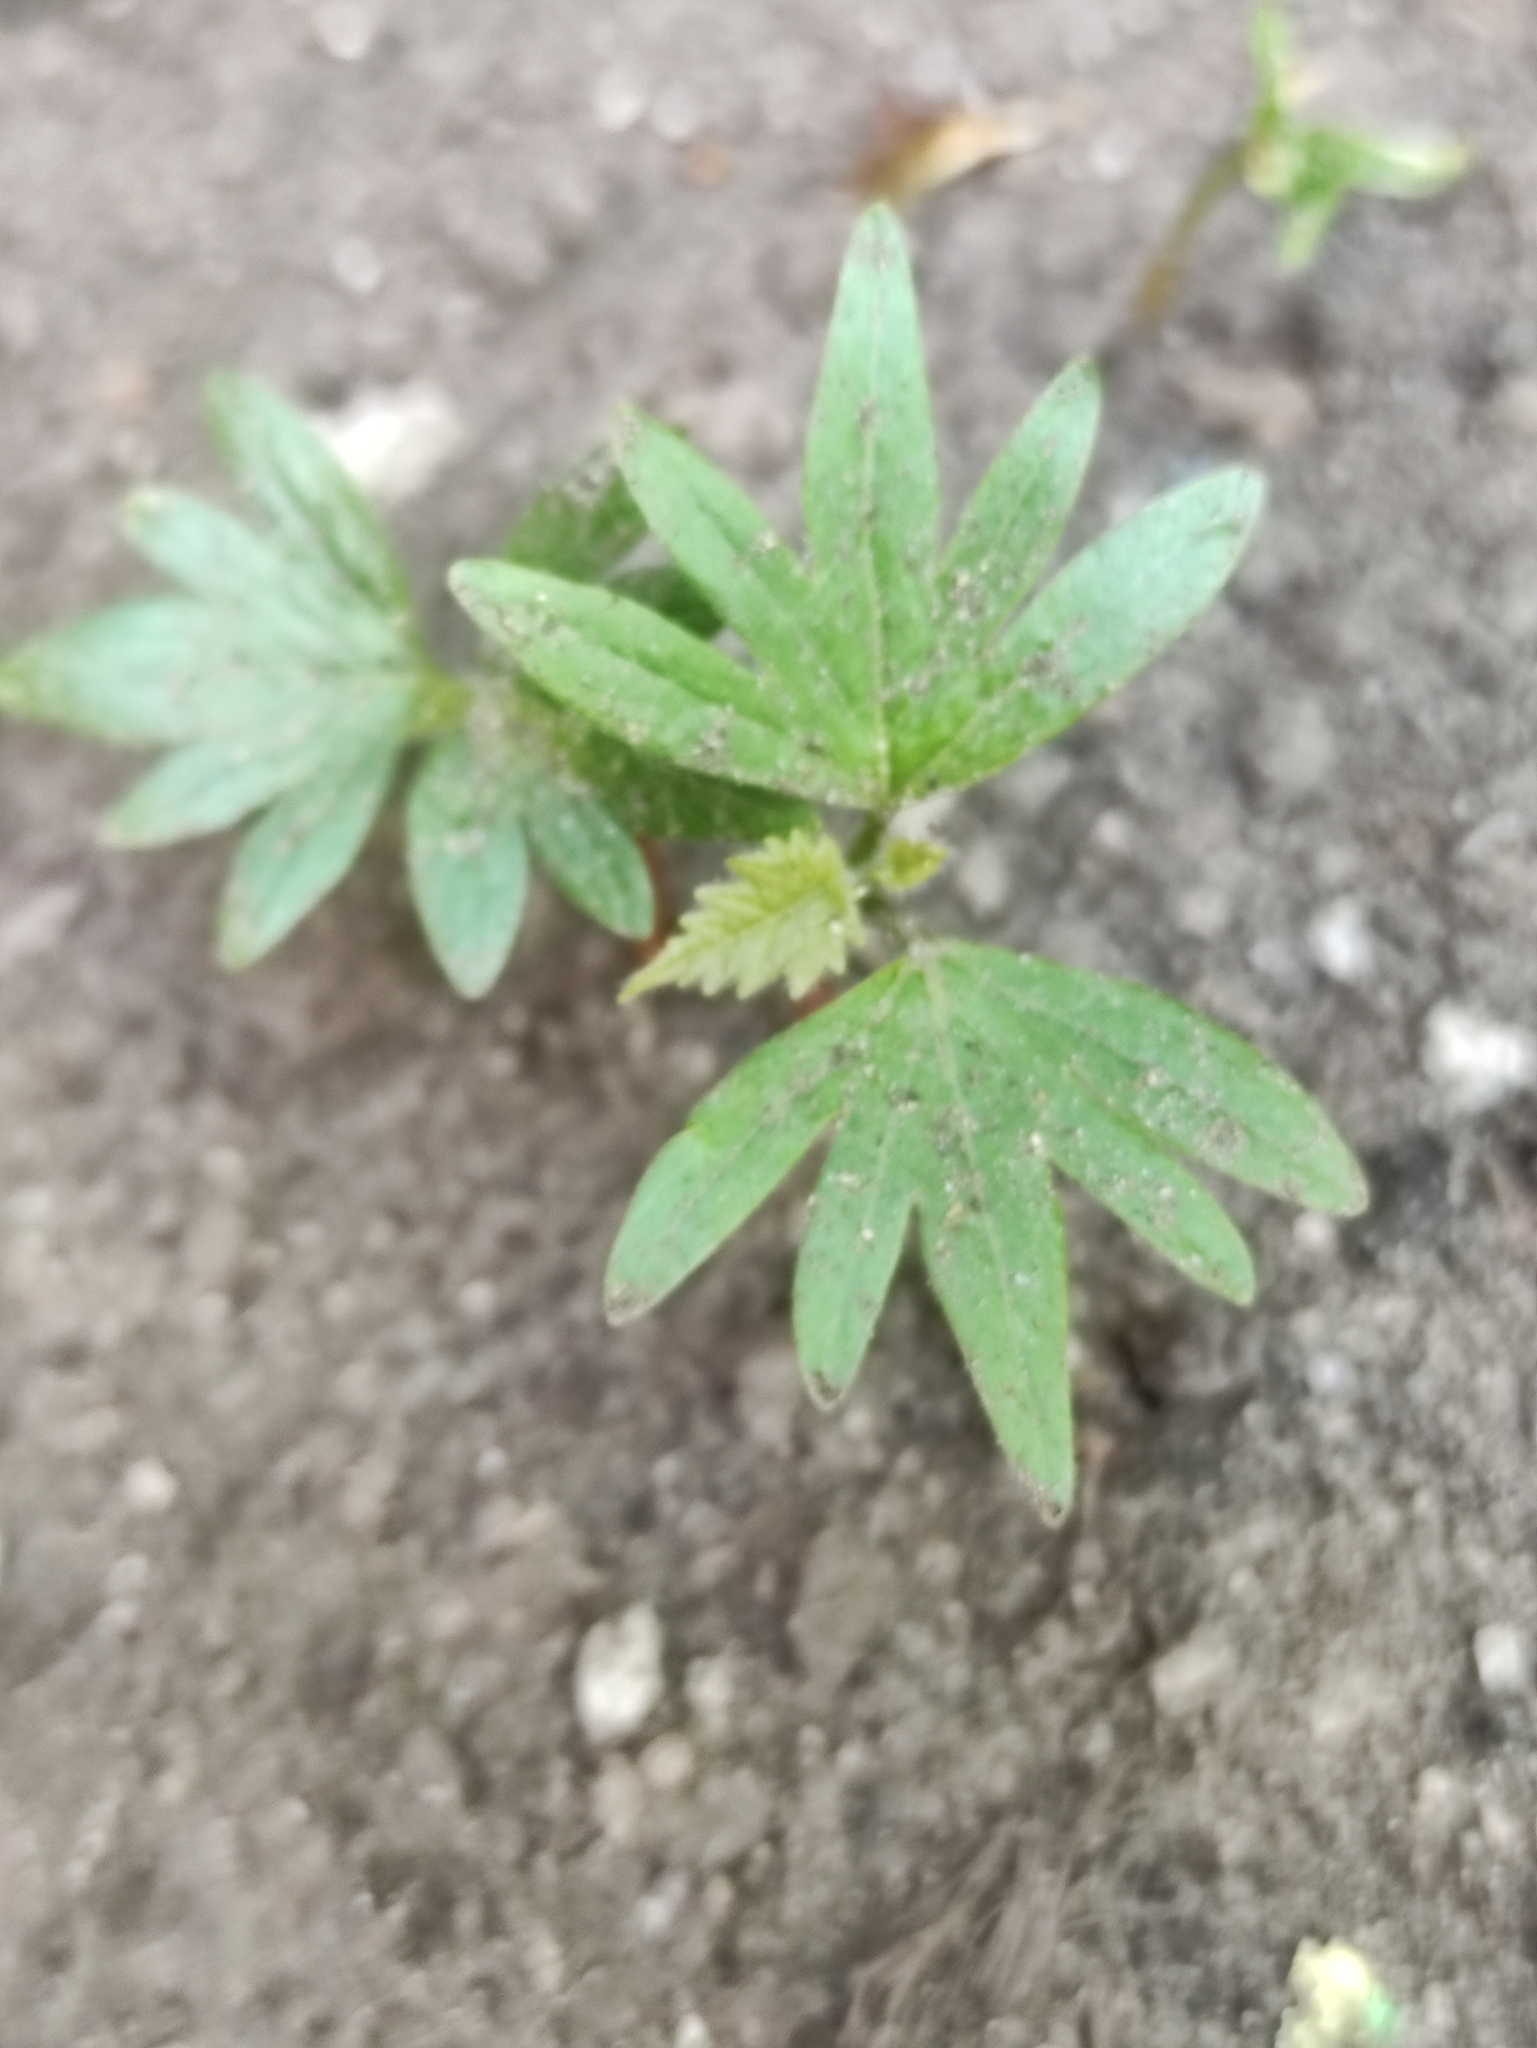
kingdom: Plantae
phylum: Tracheophyta
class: Magnoliopsida
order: Malvales
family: Malvaceae
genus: Tilia
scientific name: Tilia cordata
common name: Small-leaved lime
